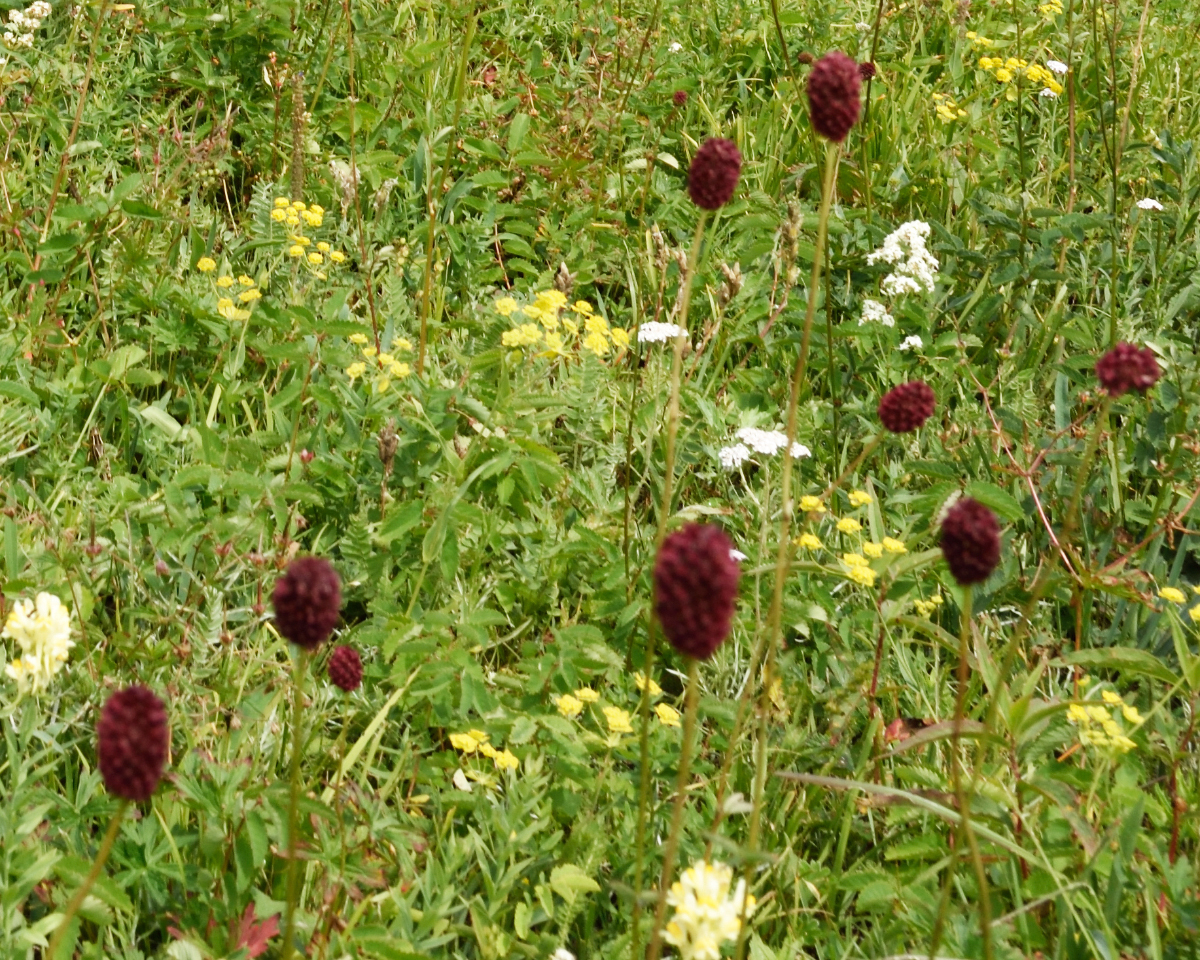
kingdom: Plantae
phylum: Tracheophyta
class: Magnoliopsida
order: Rosales
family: Rosaceae
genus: Sanguisorba
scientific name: Sanguisorba officinalis
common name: Great burnet
